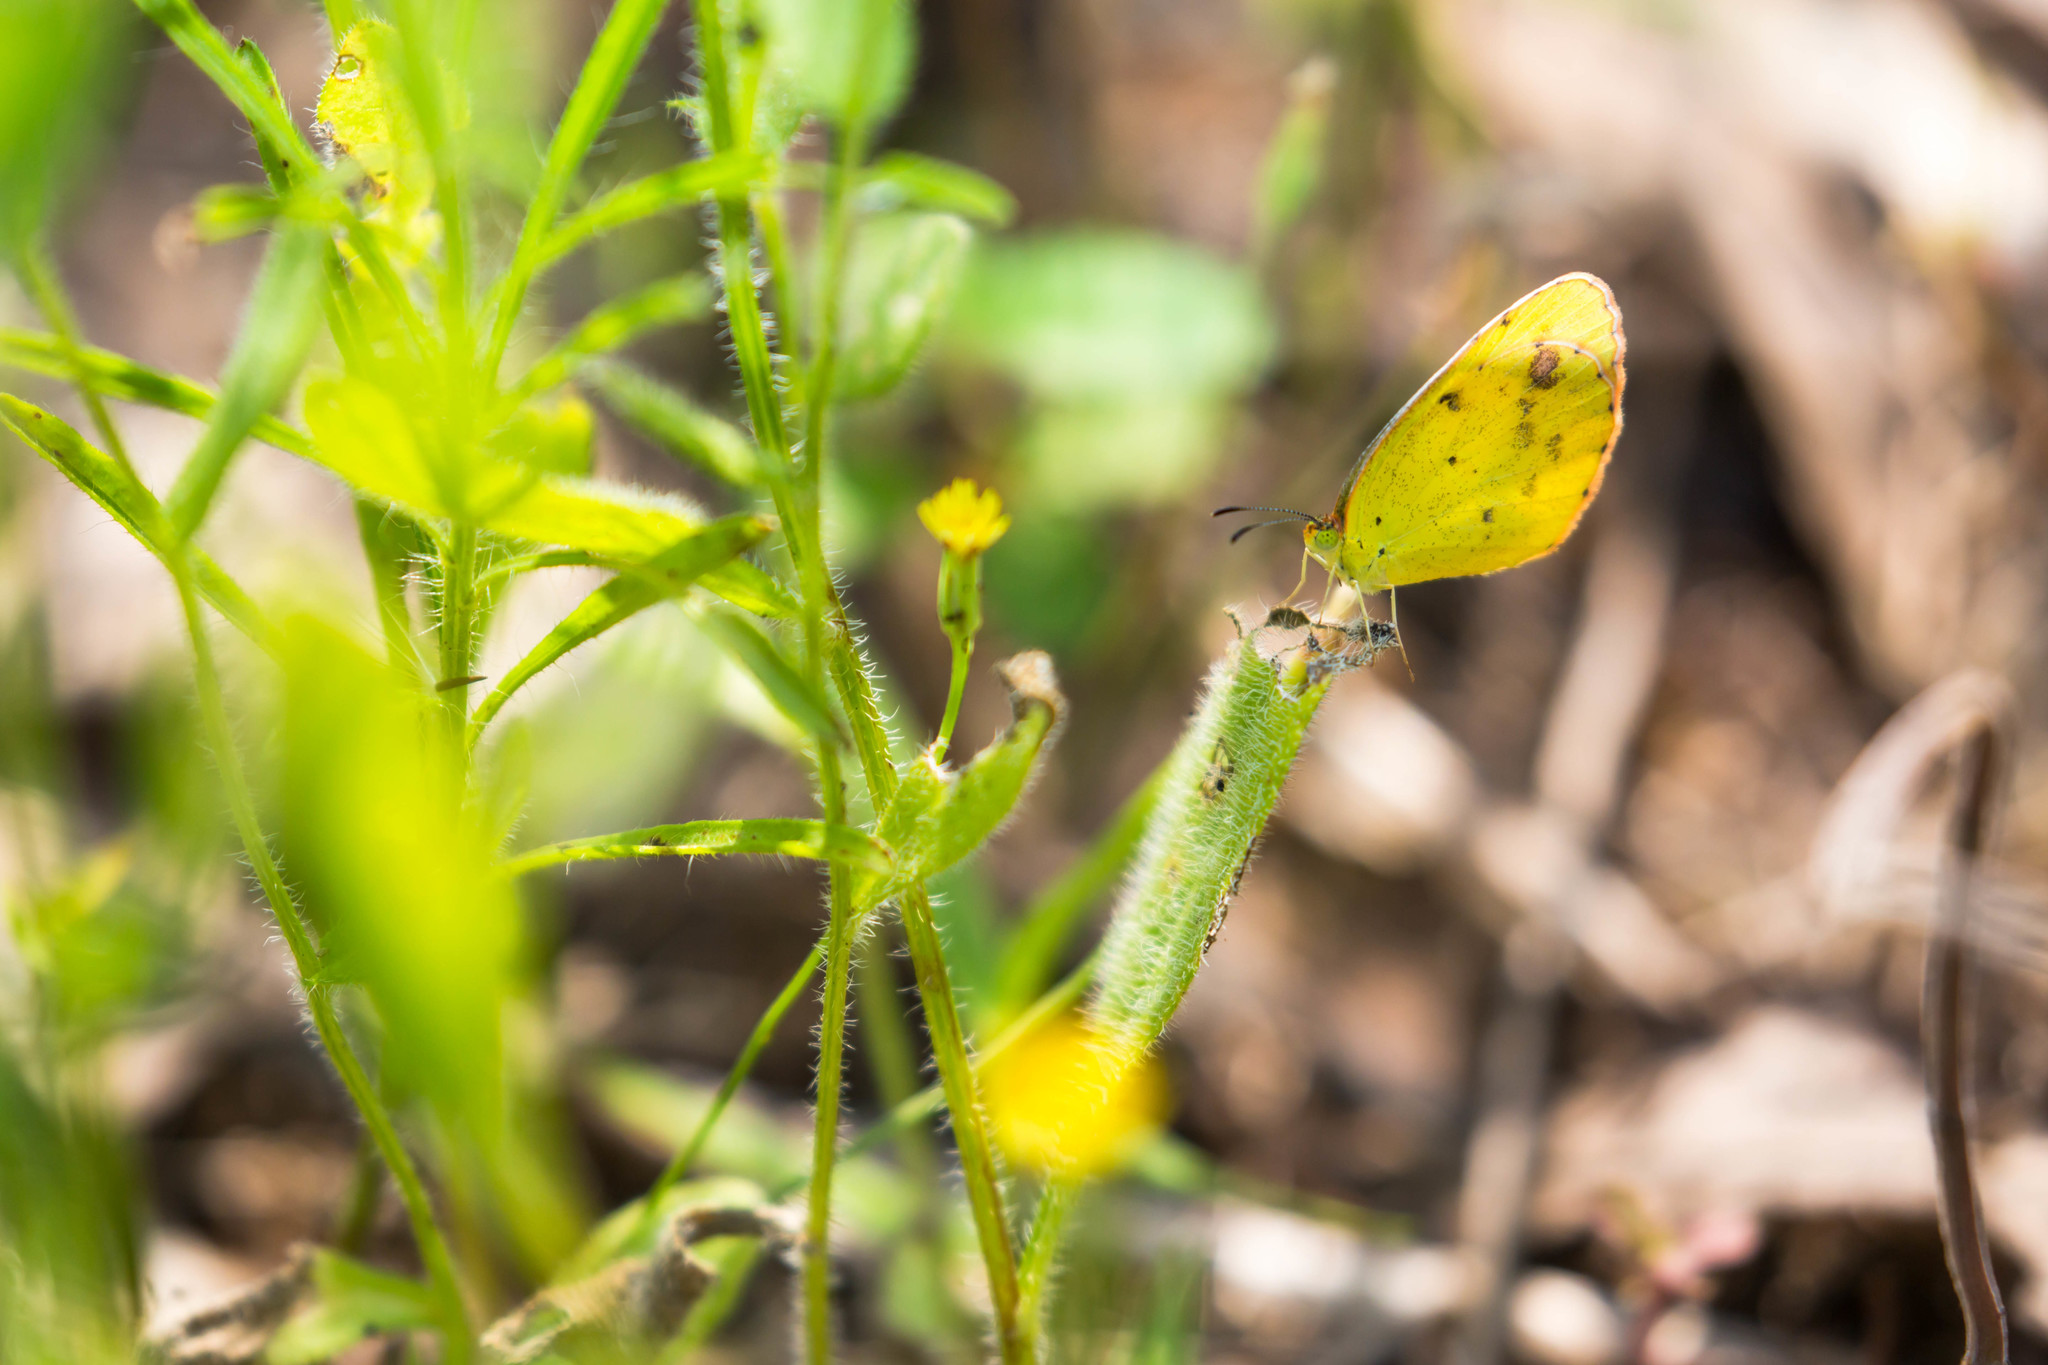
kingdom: Animalia
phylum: Arthropoda
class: Insecta
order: Lepidoptera
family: Pieridae
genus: Pyrisitia
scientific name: Pyrisitia lisa
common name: Little yellow
